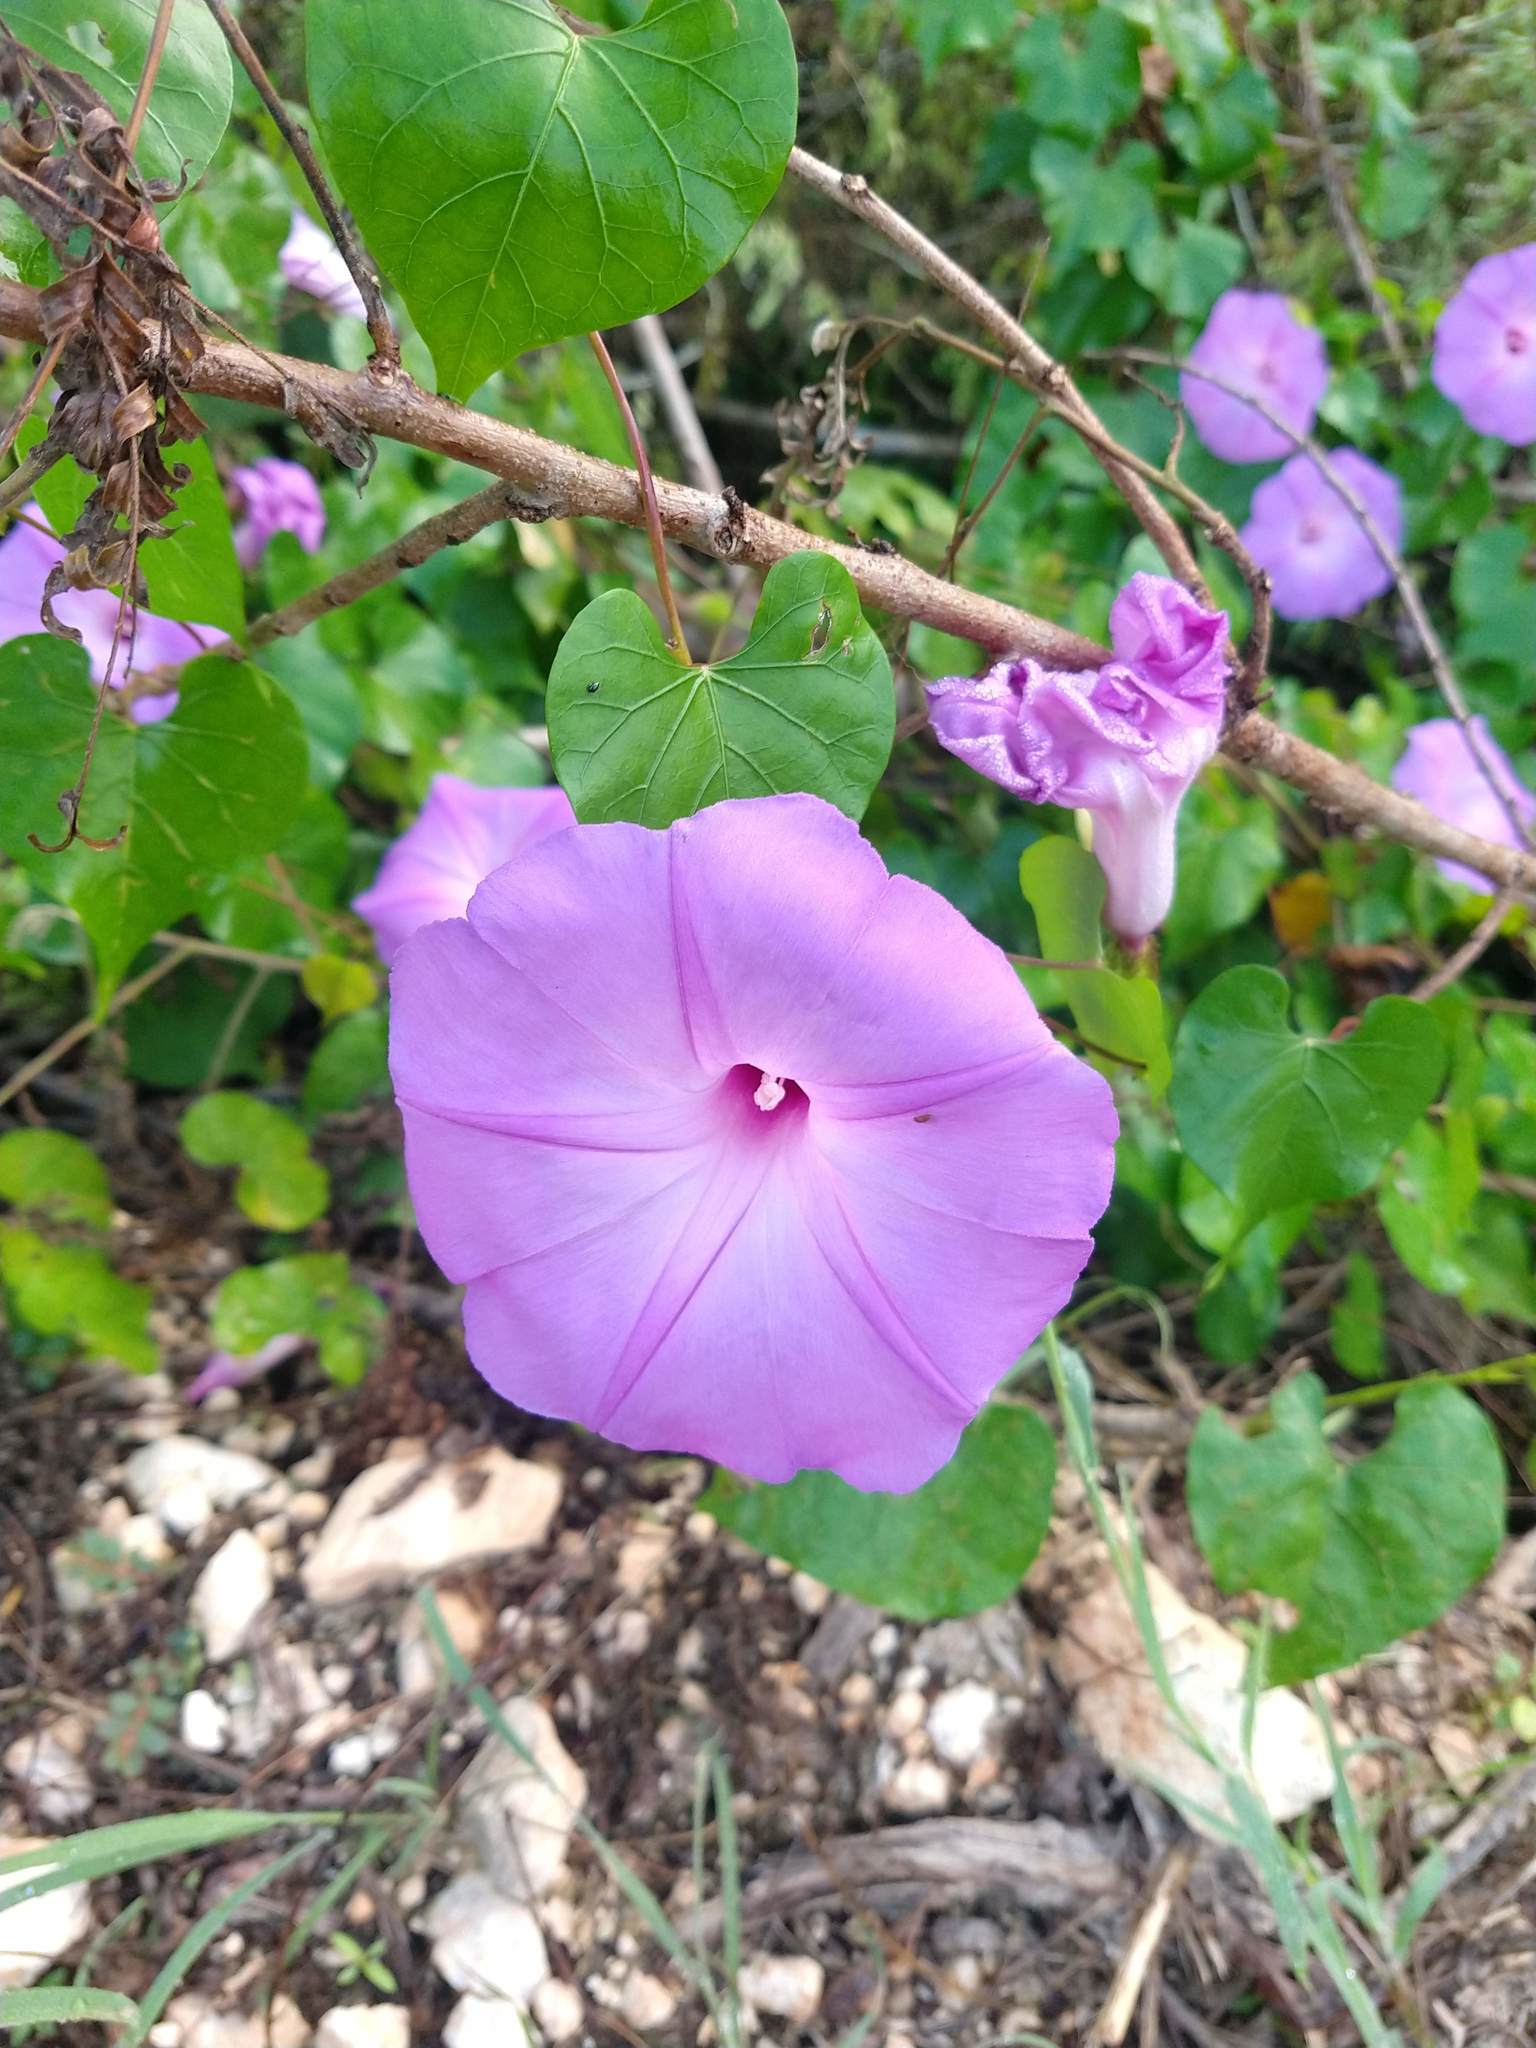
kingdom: Plantae
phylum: Tracheophyta
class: Magnoliopsida
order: Solanales
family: Convolvulaceae
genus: Ipomoea
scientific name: Ipomoea crinicalyx
